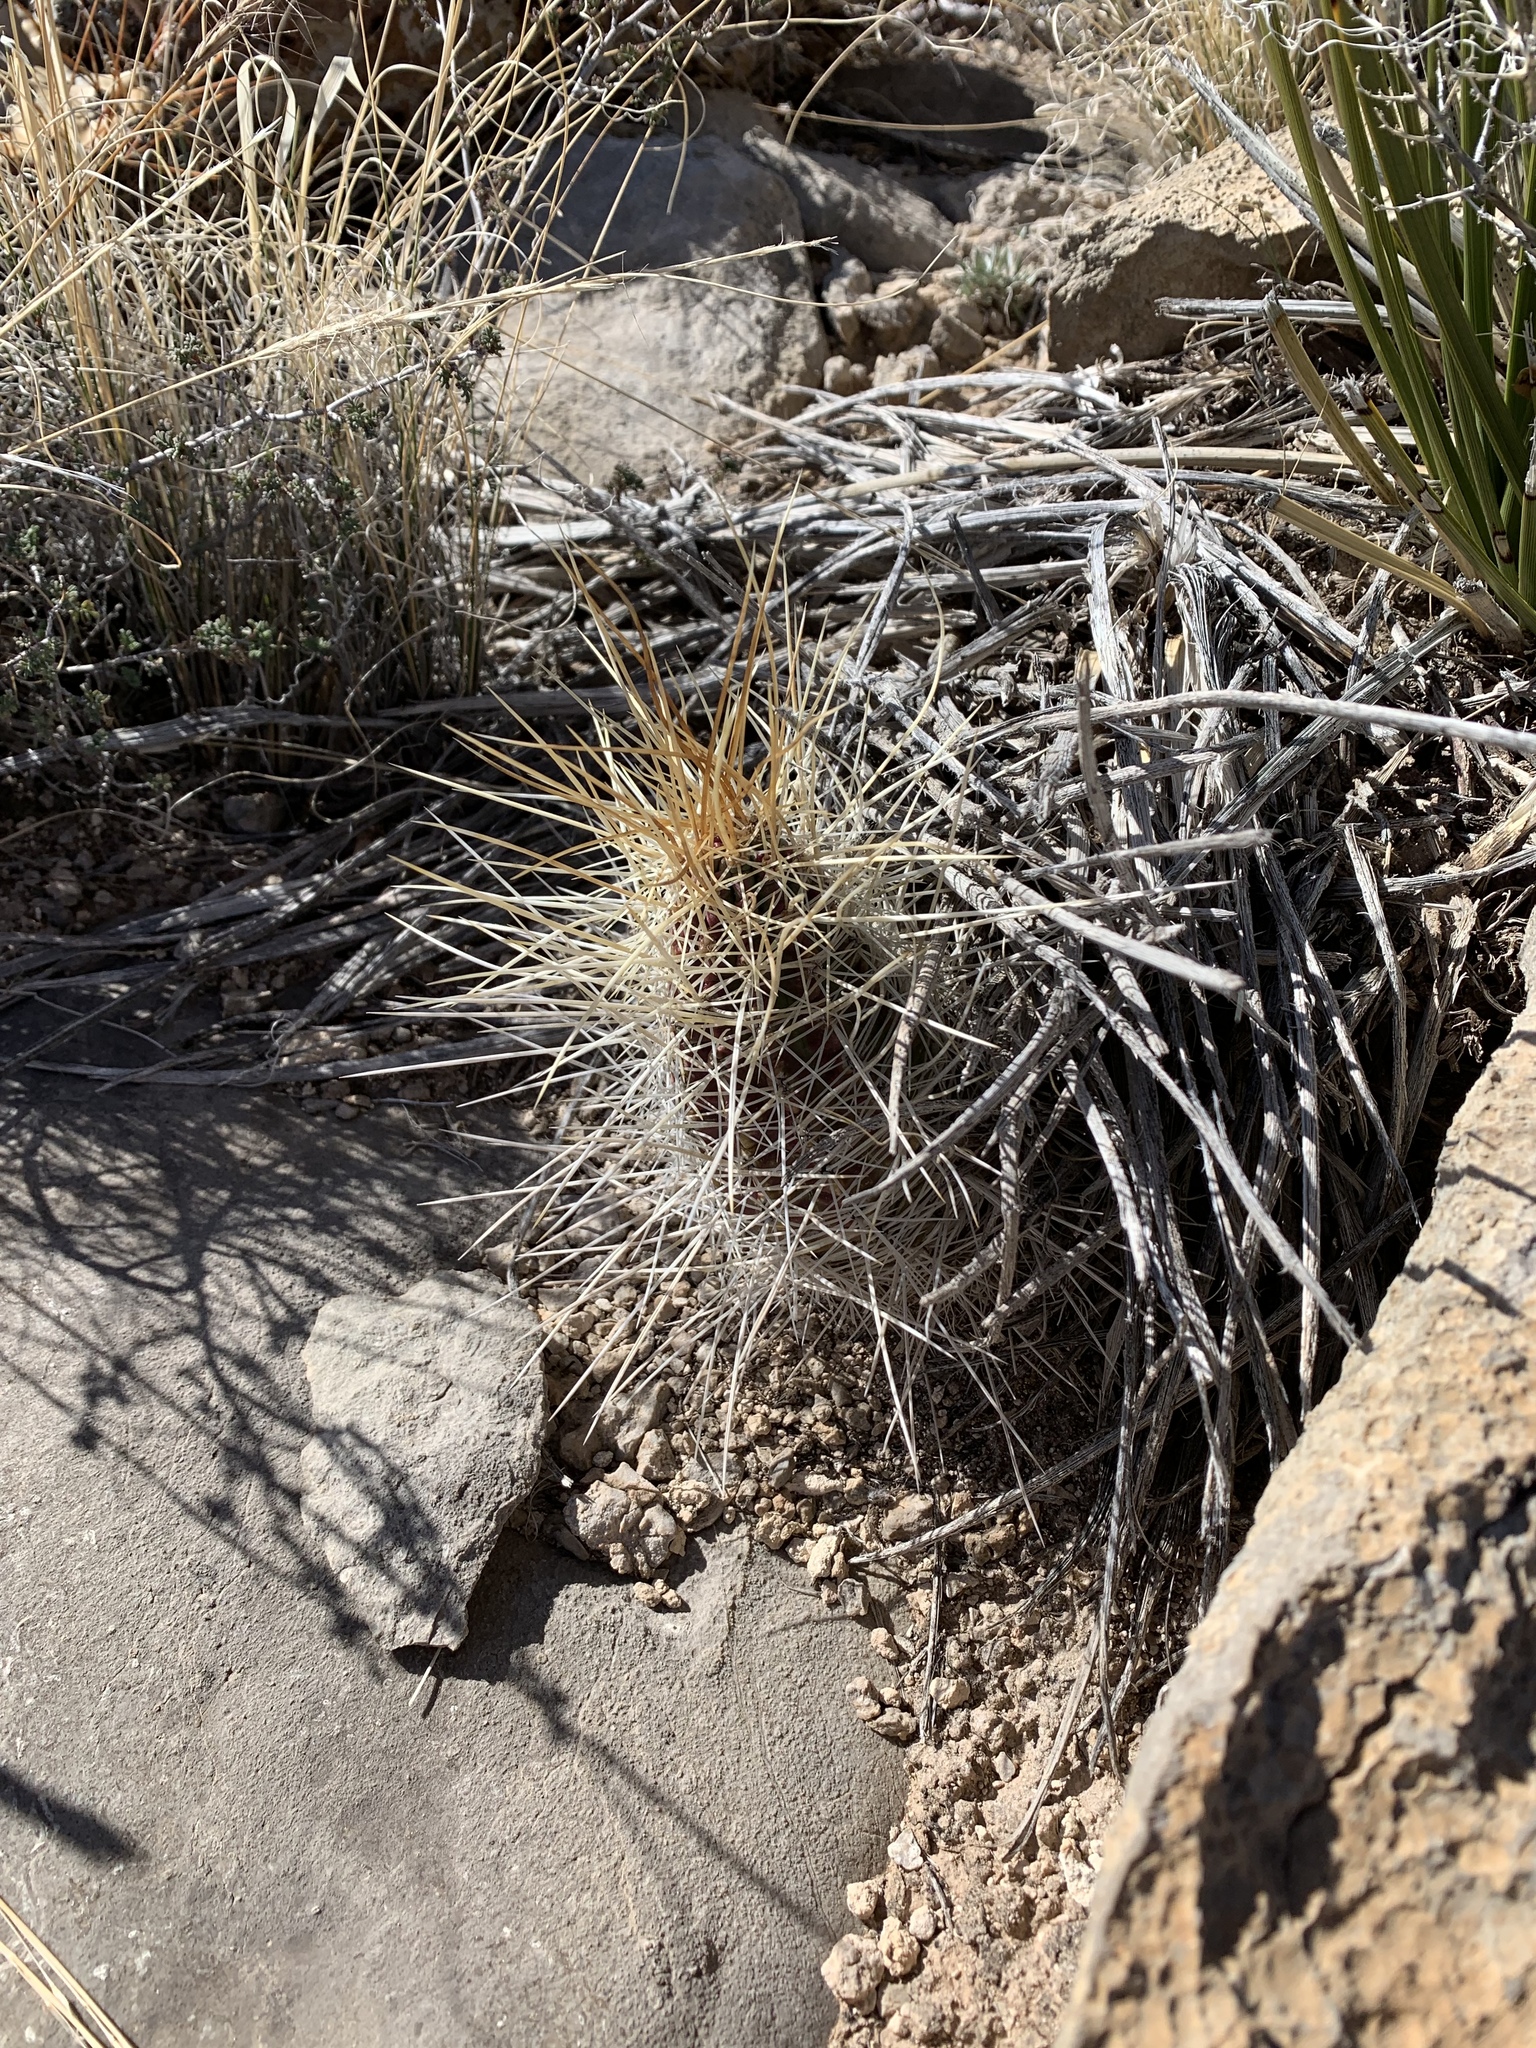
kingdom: Plantae
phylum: Tracheophyta
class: Magnoliopsida
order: Caryophyllales
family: Cactaceae
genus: Echinocereus
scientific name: Echinocereus stramineus
